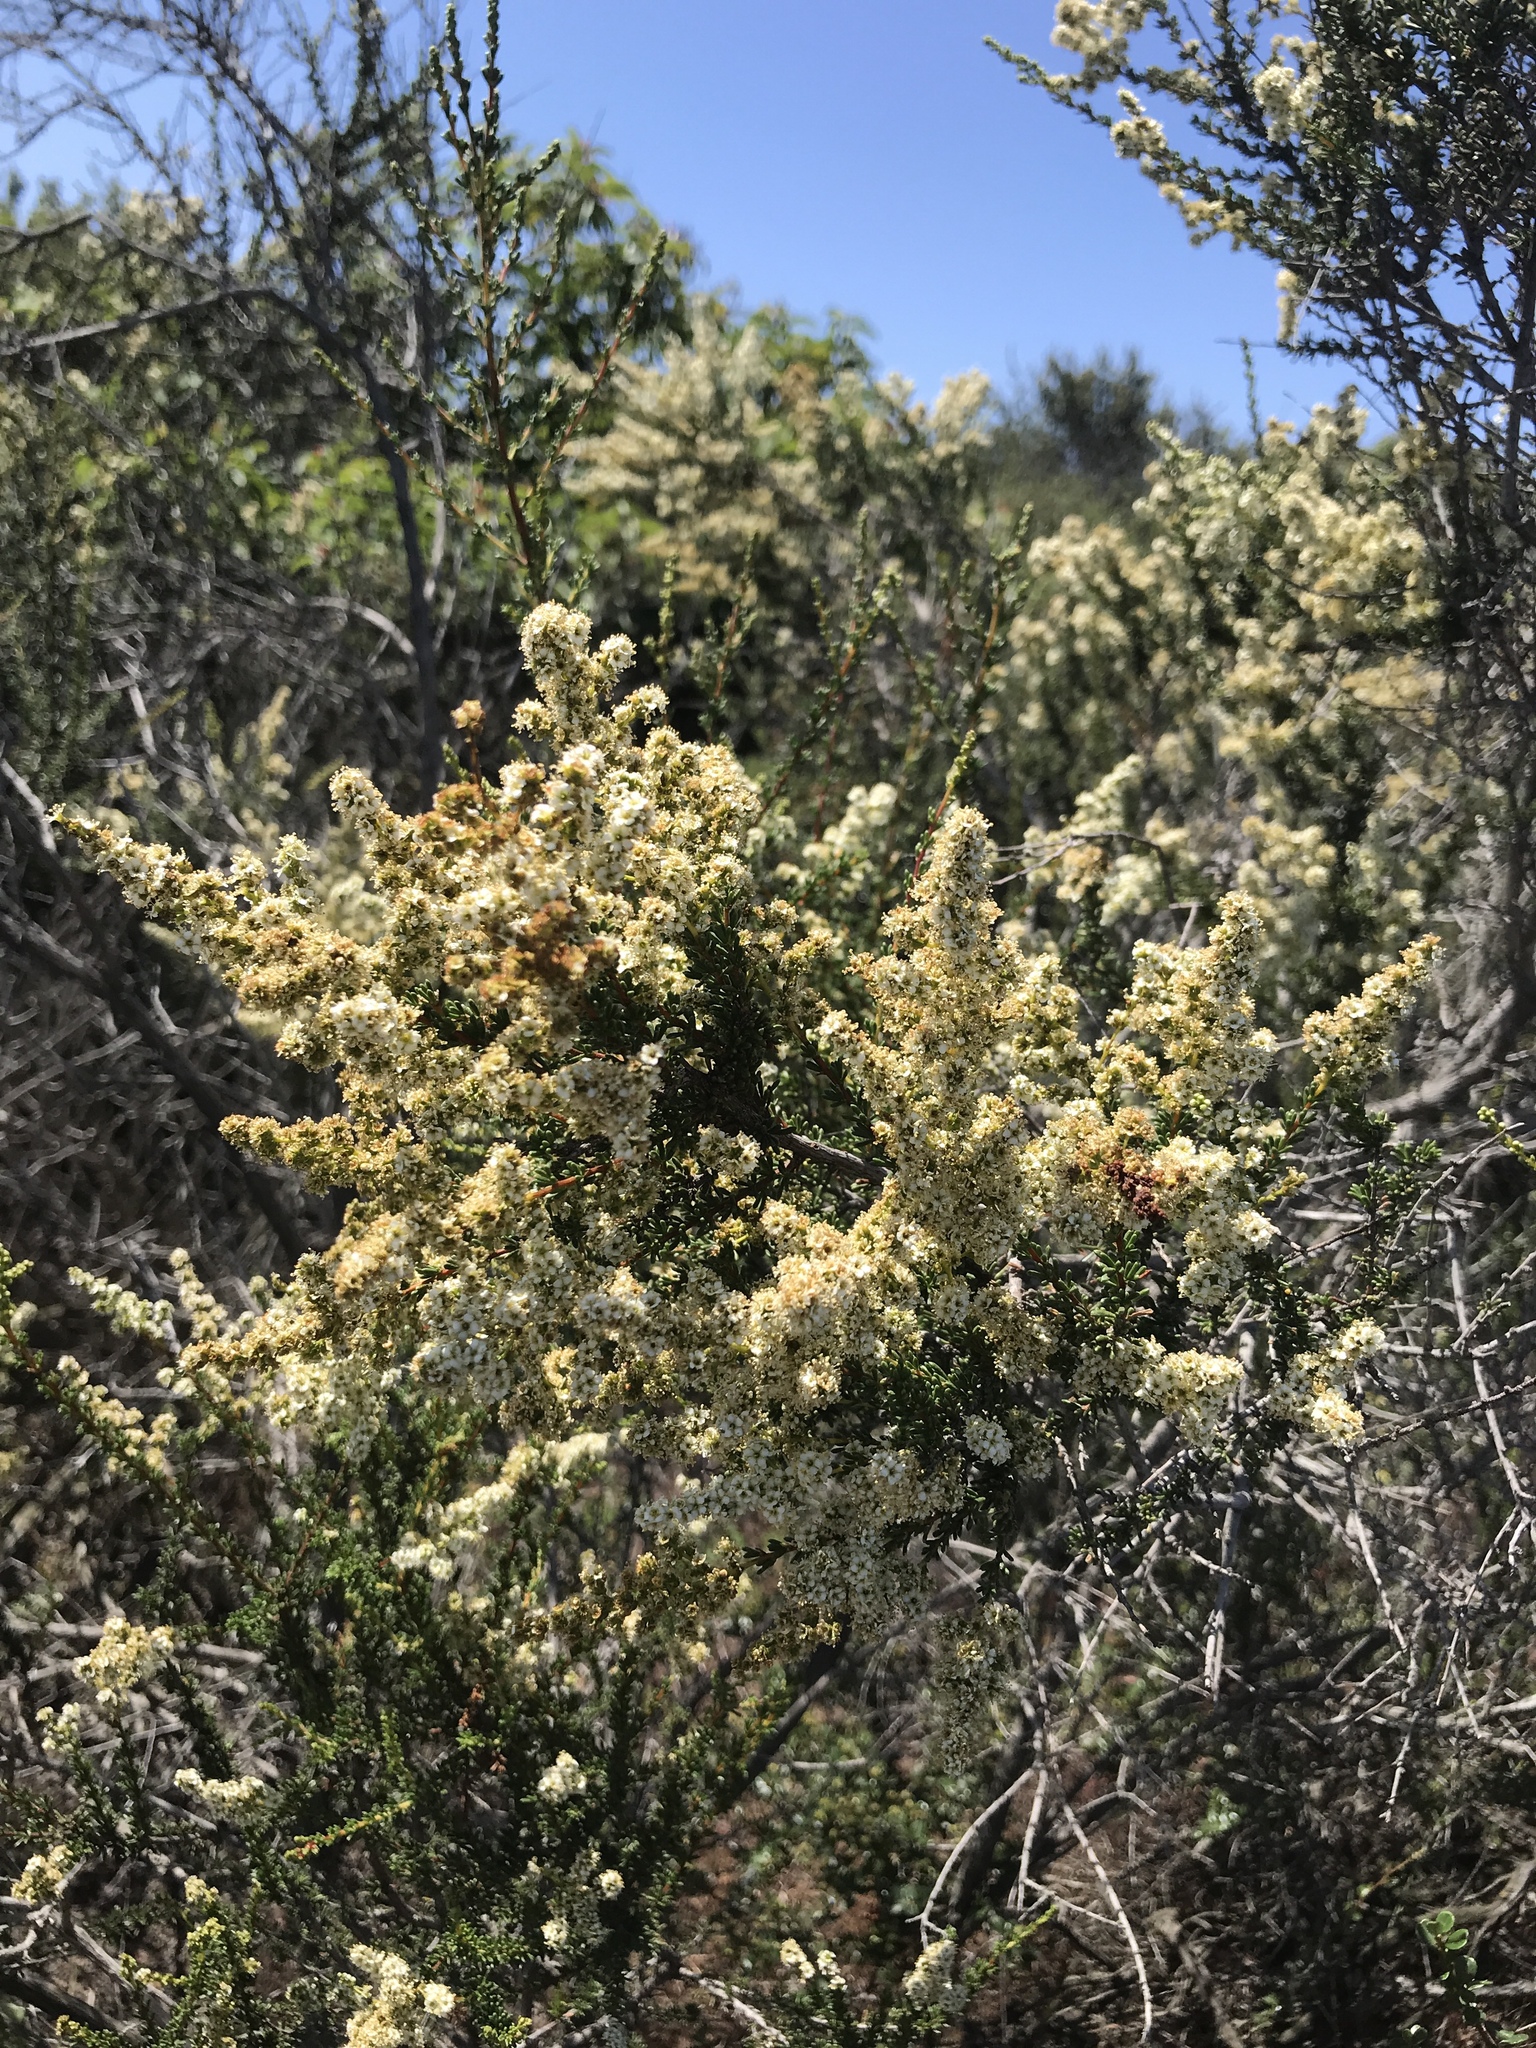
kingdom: Plantae
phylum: Tracheophyta
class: Magnoliopsida
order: Rosales
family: Rosaceae
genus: Adenostoma
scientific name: Adenostoma fasciculatum
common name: Chamise
